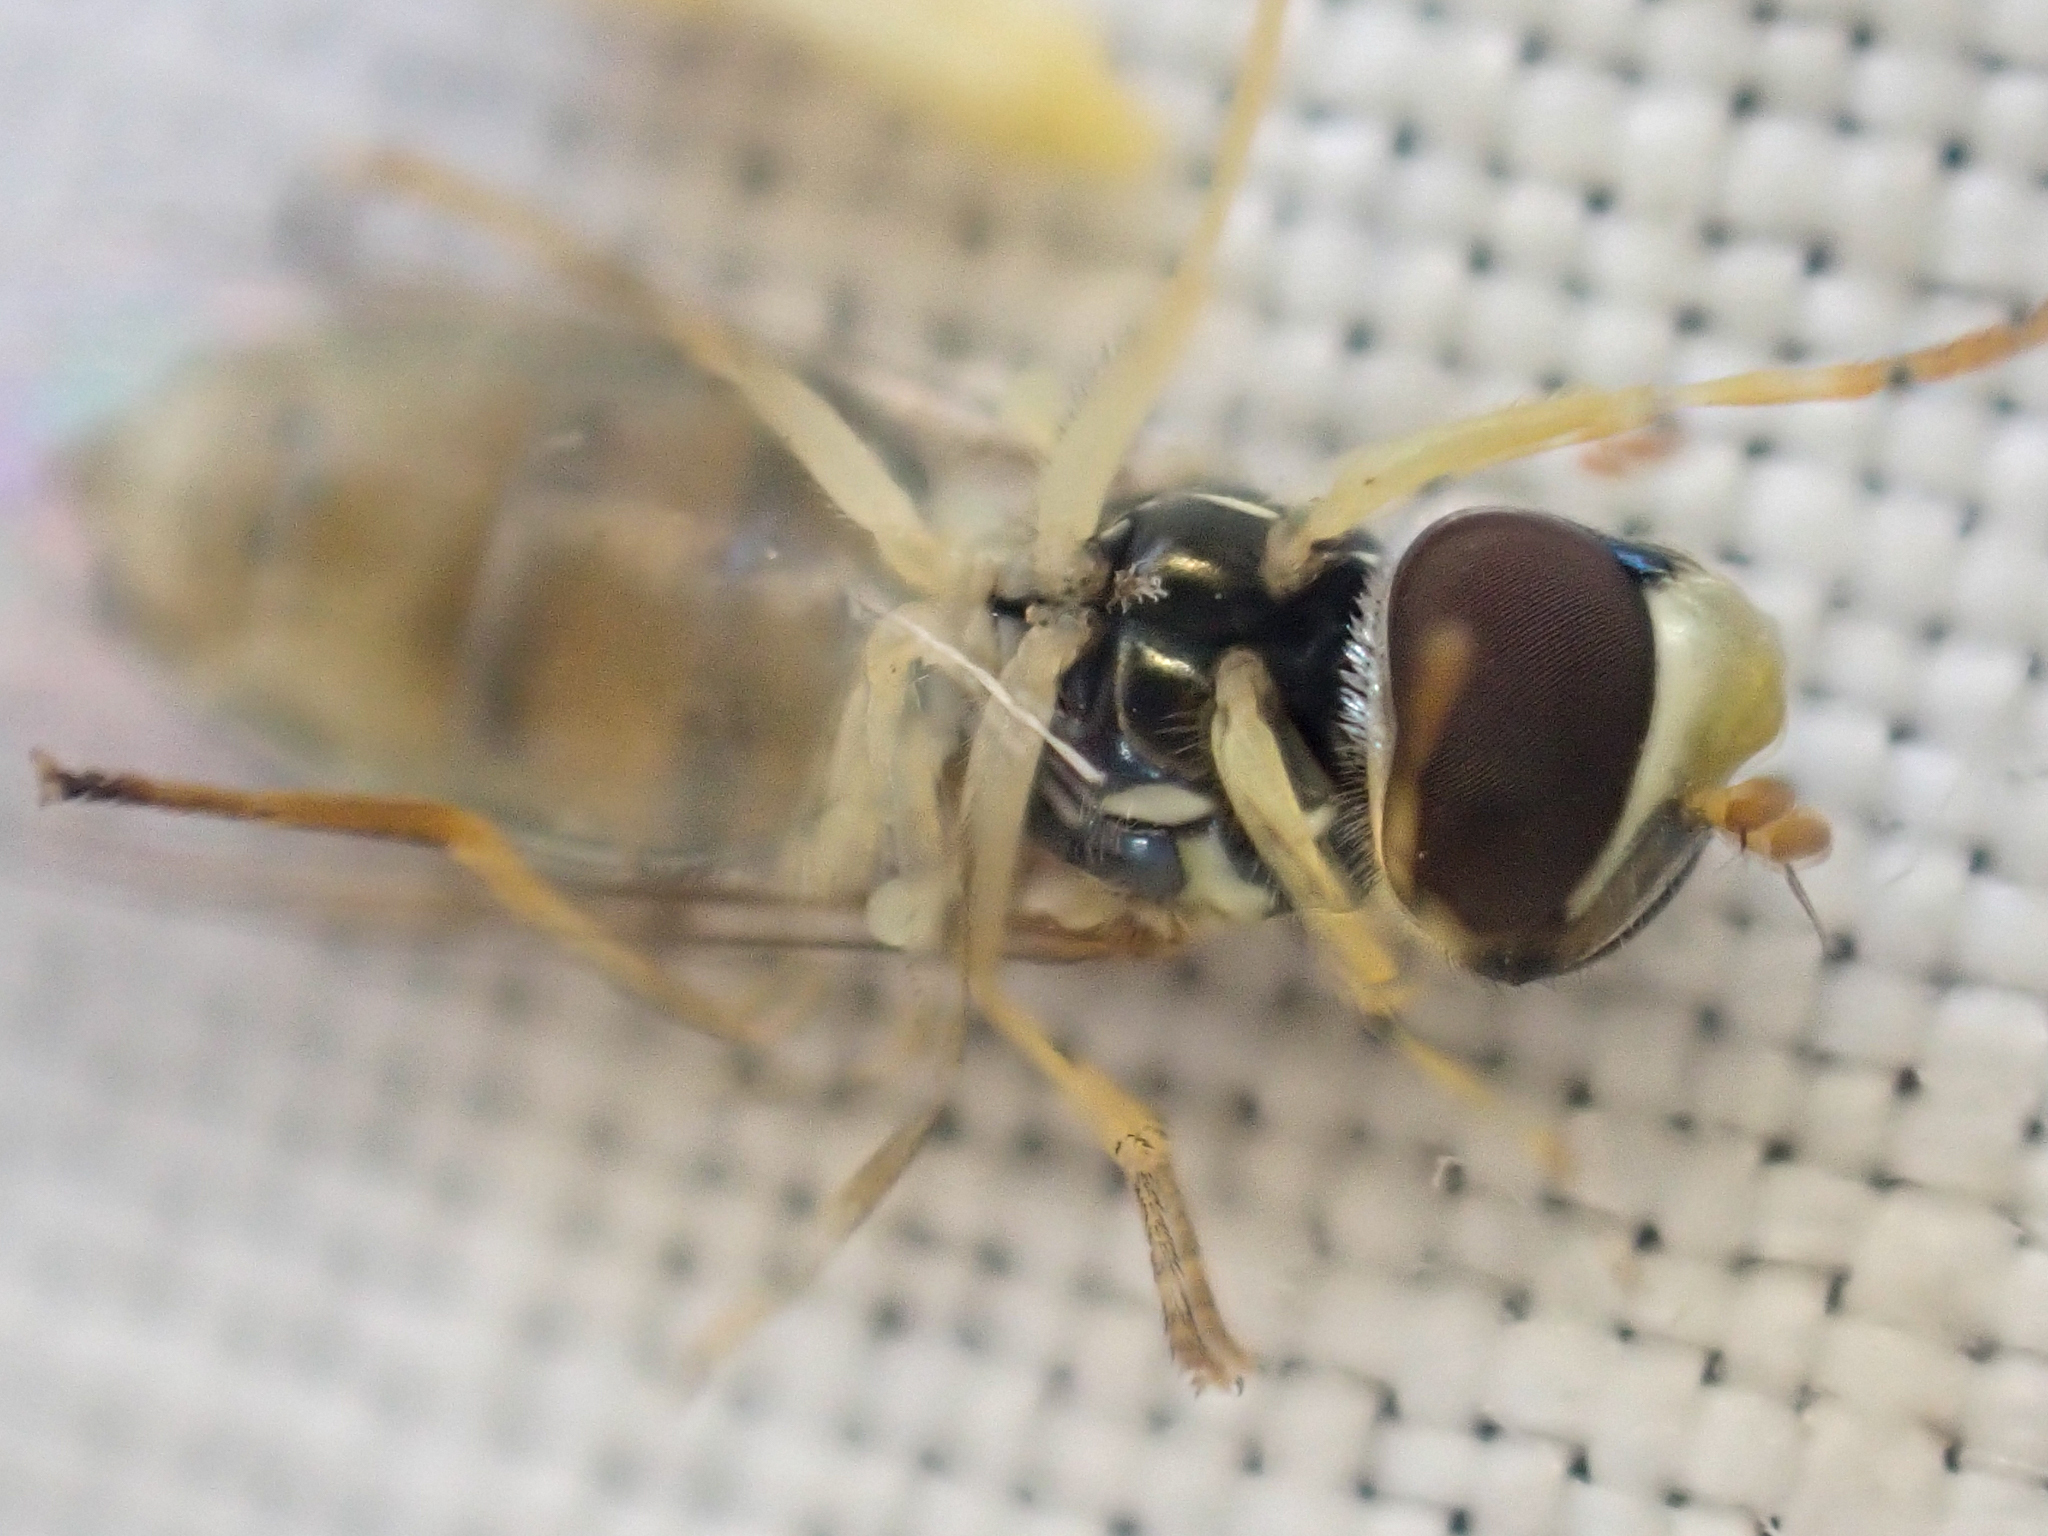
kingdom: Animalia
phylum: Arthropoda
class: Insecta
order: Diptera
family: Syrphidae
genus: Toxomerus
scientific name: Toxomerus marginatus
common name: Syrphid fly
